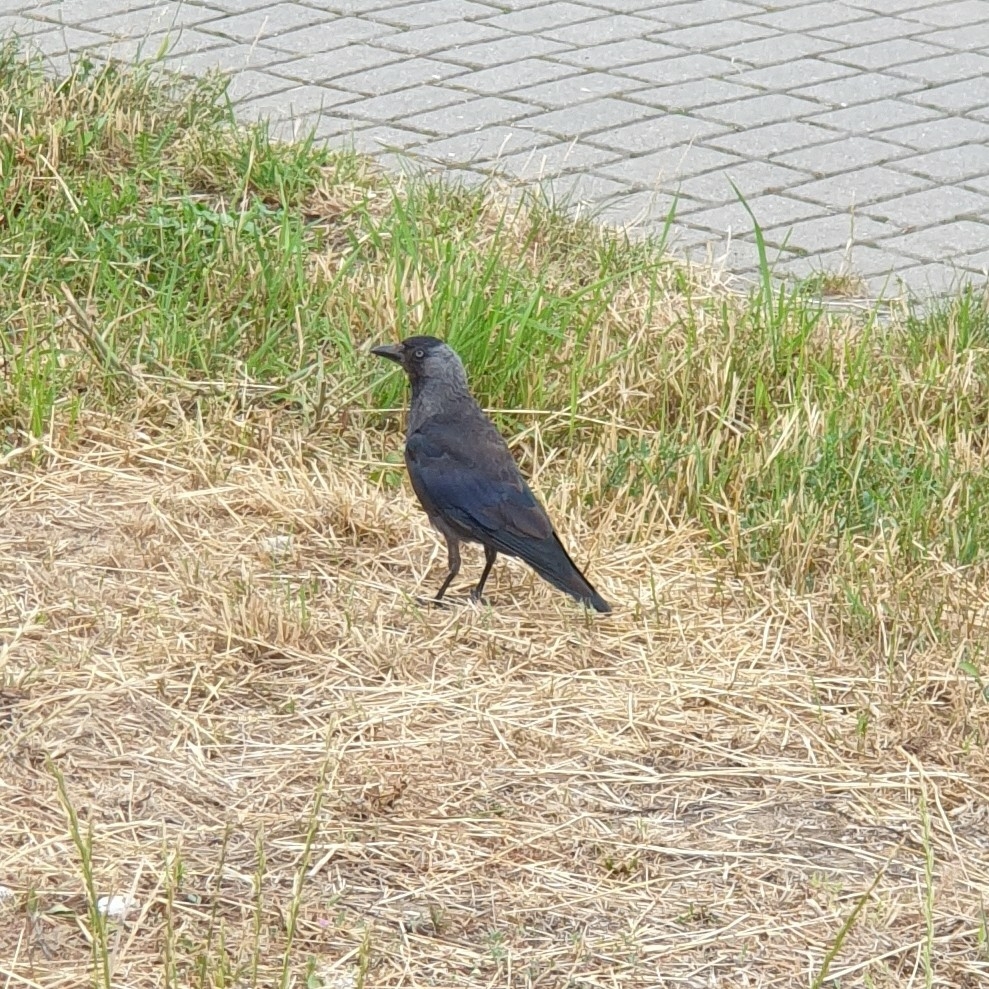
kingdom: Animalia
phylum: Chordata
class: Aves
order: Passeriformes
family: Corvidae
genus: Coloeus
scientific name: Coloeus monedula
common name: Western jackdaw
